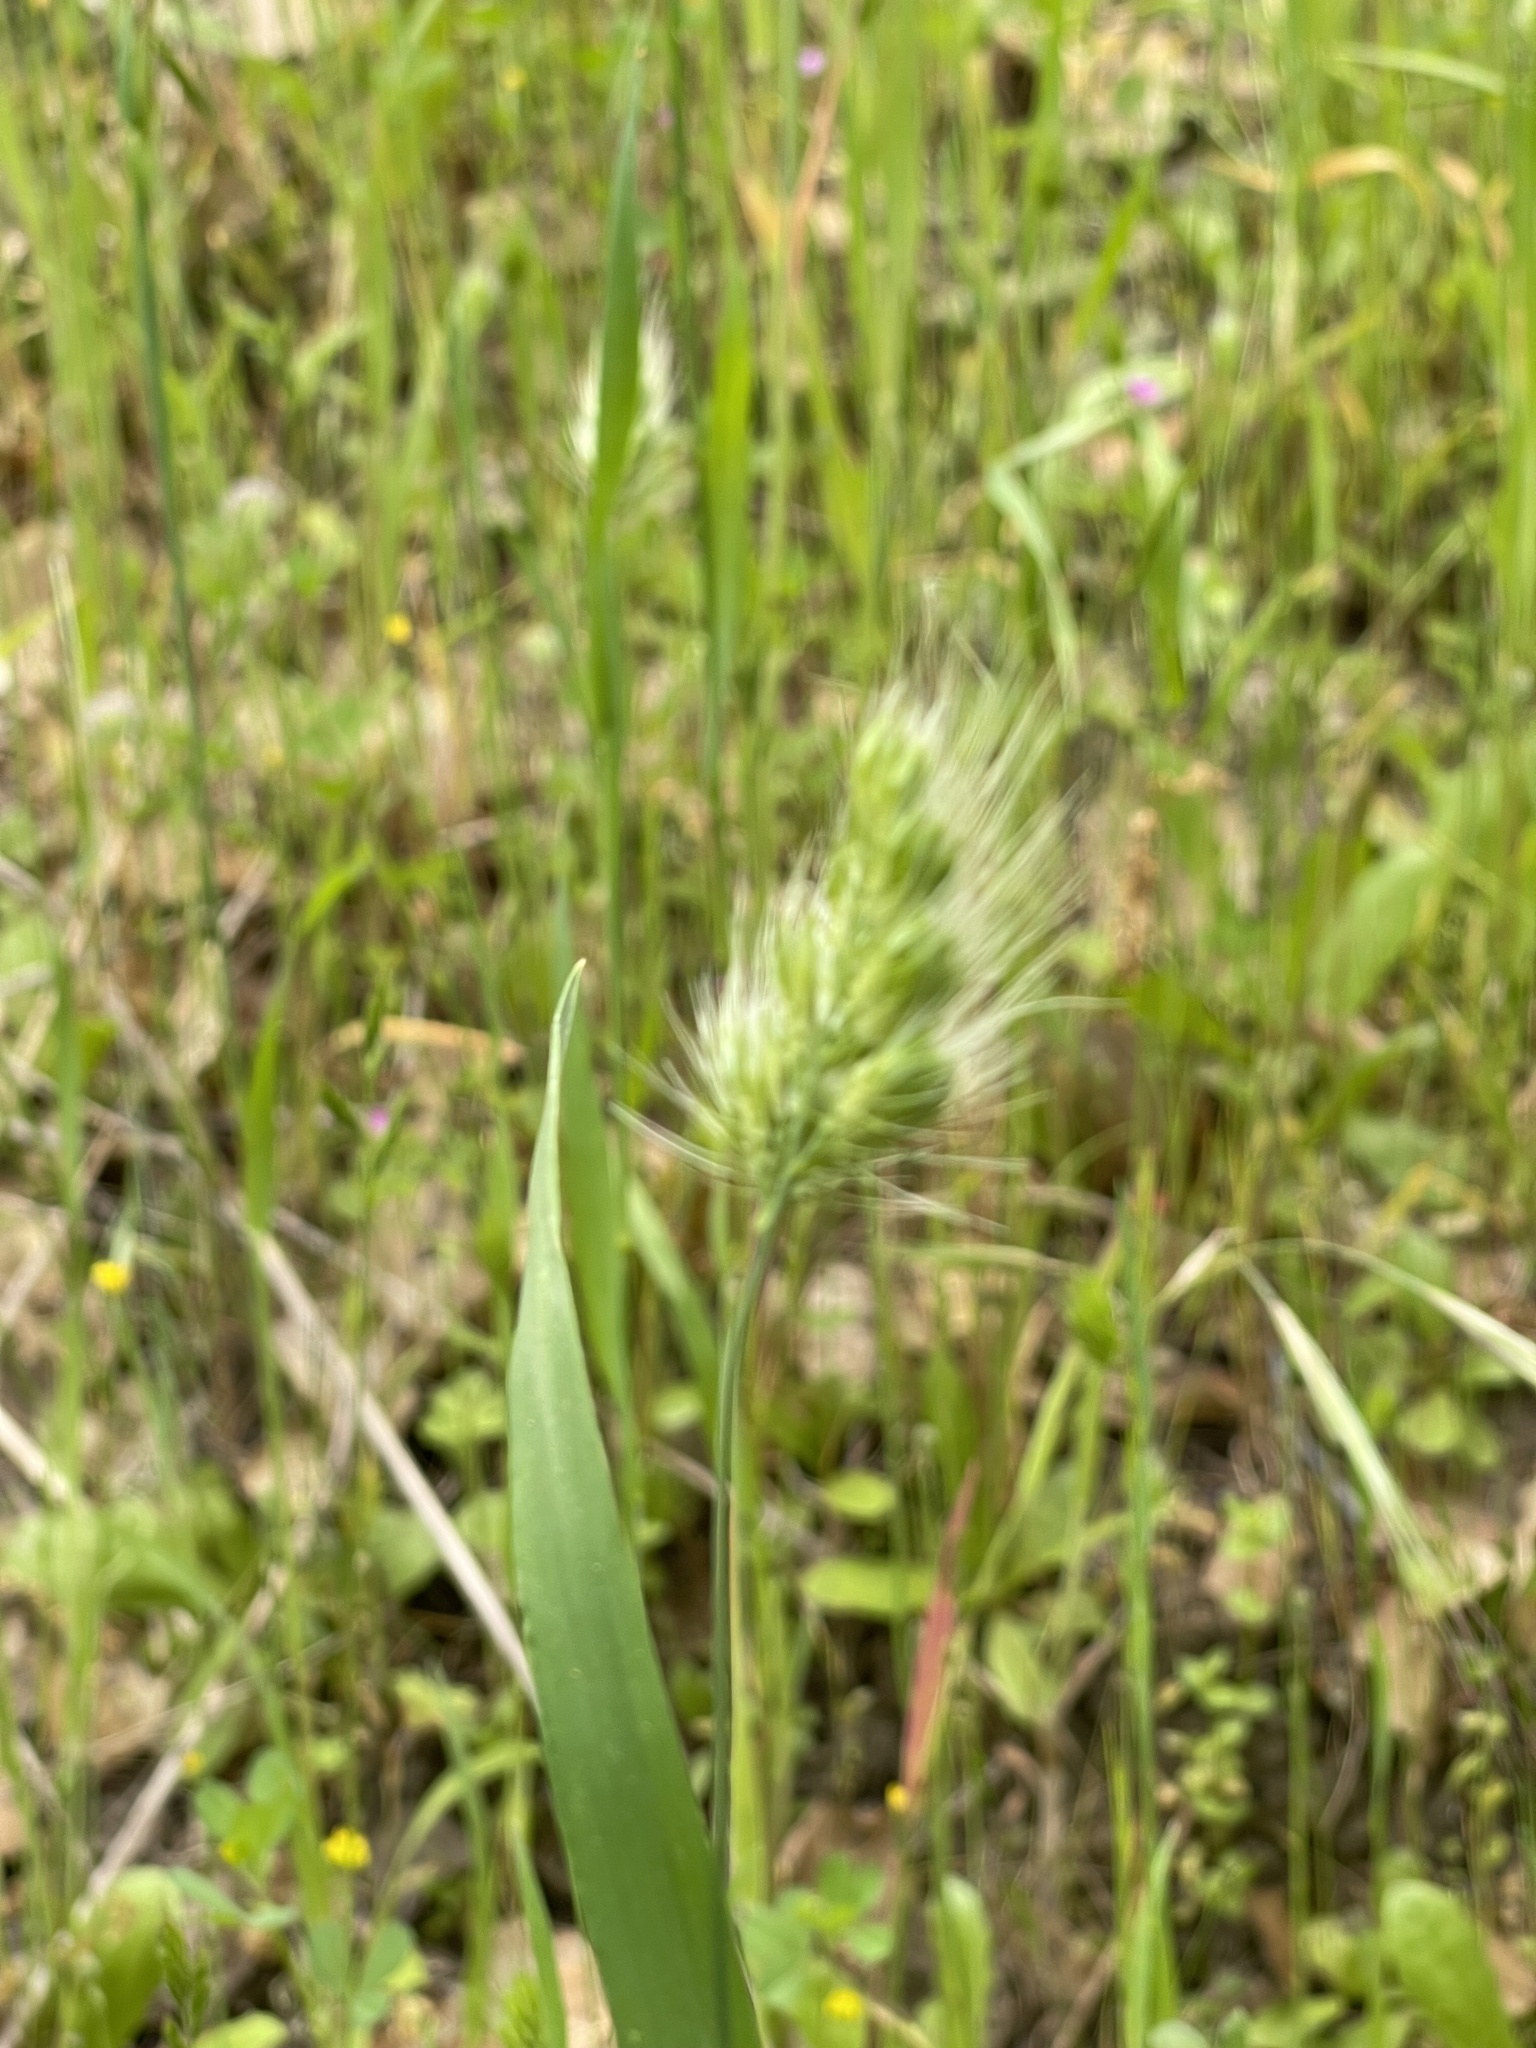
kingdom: Plantae
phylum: Tracheophyta
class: Liliopsida
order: Poales
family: Poaceae
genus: Cynosurus
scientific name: Cynosurus echinatus
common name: Rough dog's-tail
